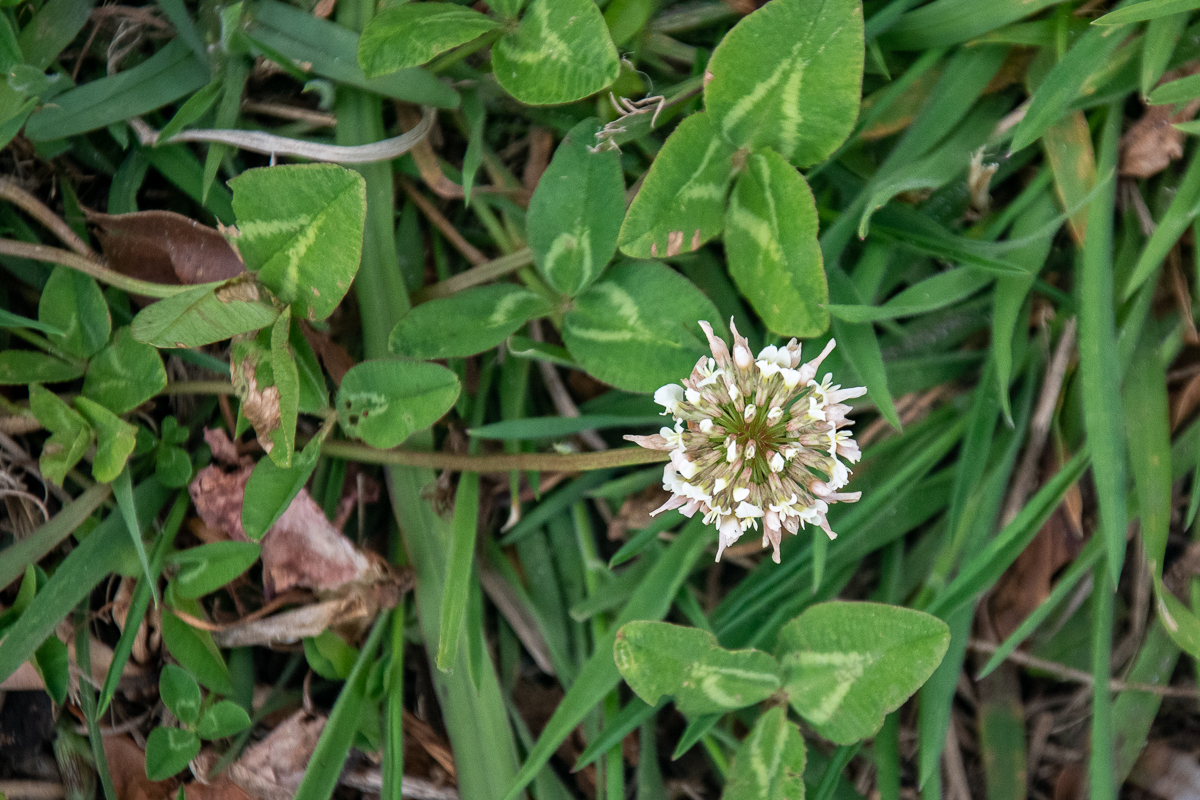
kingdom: Plantae
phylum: Tracheophyta
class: Magnoliopsida
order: Fabales
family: Fabaceae
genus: Trifolium
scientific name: Trifolium repens
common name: White clover
